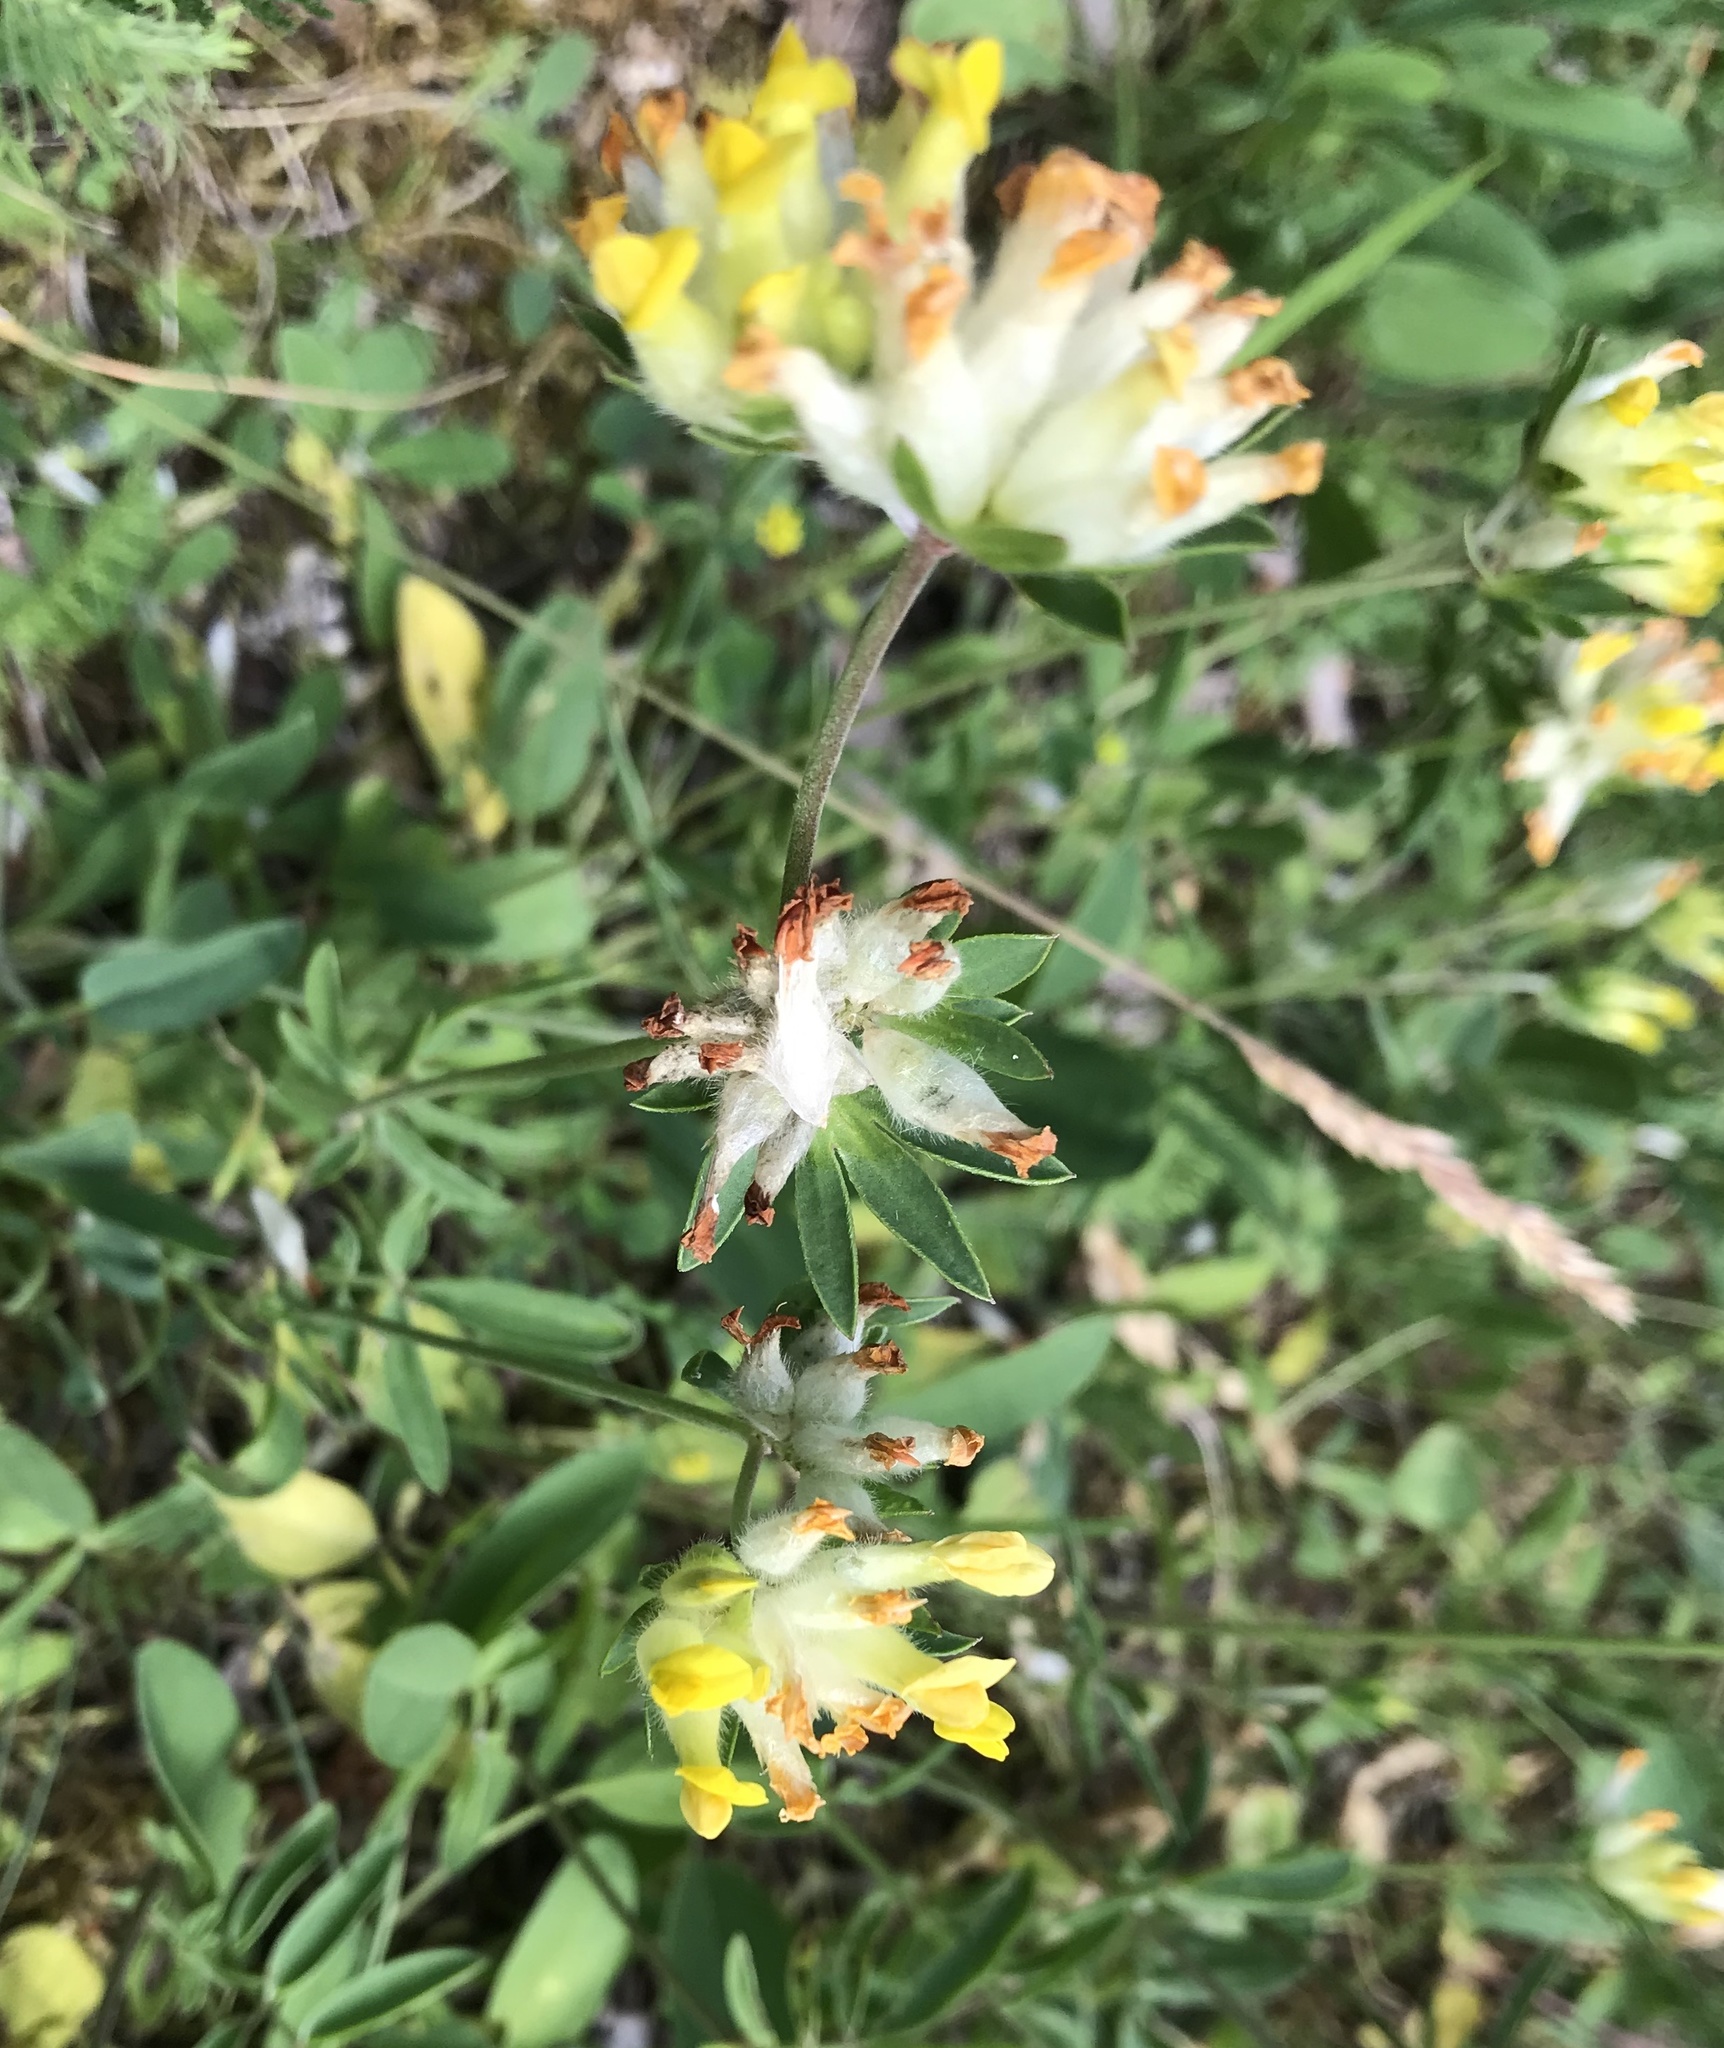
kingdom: Plantae
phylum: Tracheophyta
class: Magnoliopsida
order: Fabales
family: Fabaceae
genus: Anthyllis
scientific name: Anthyllis vulneraria
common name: Kidney vetch
